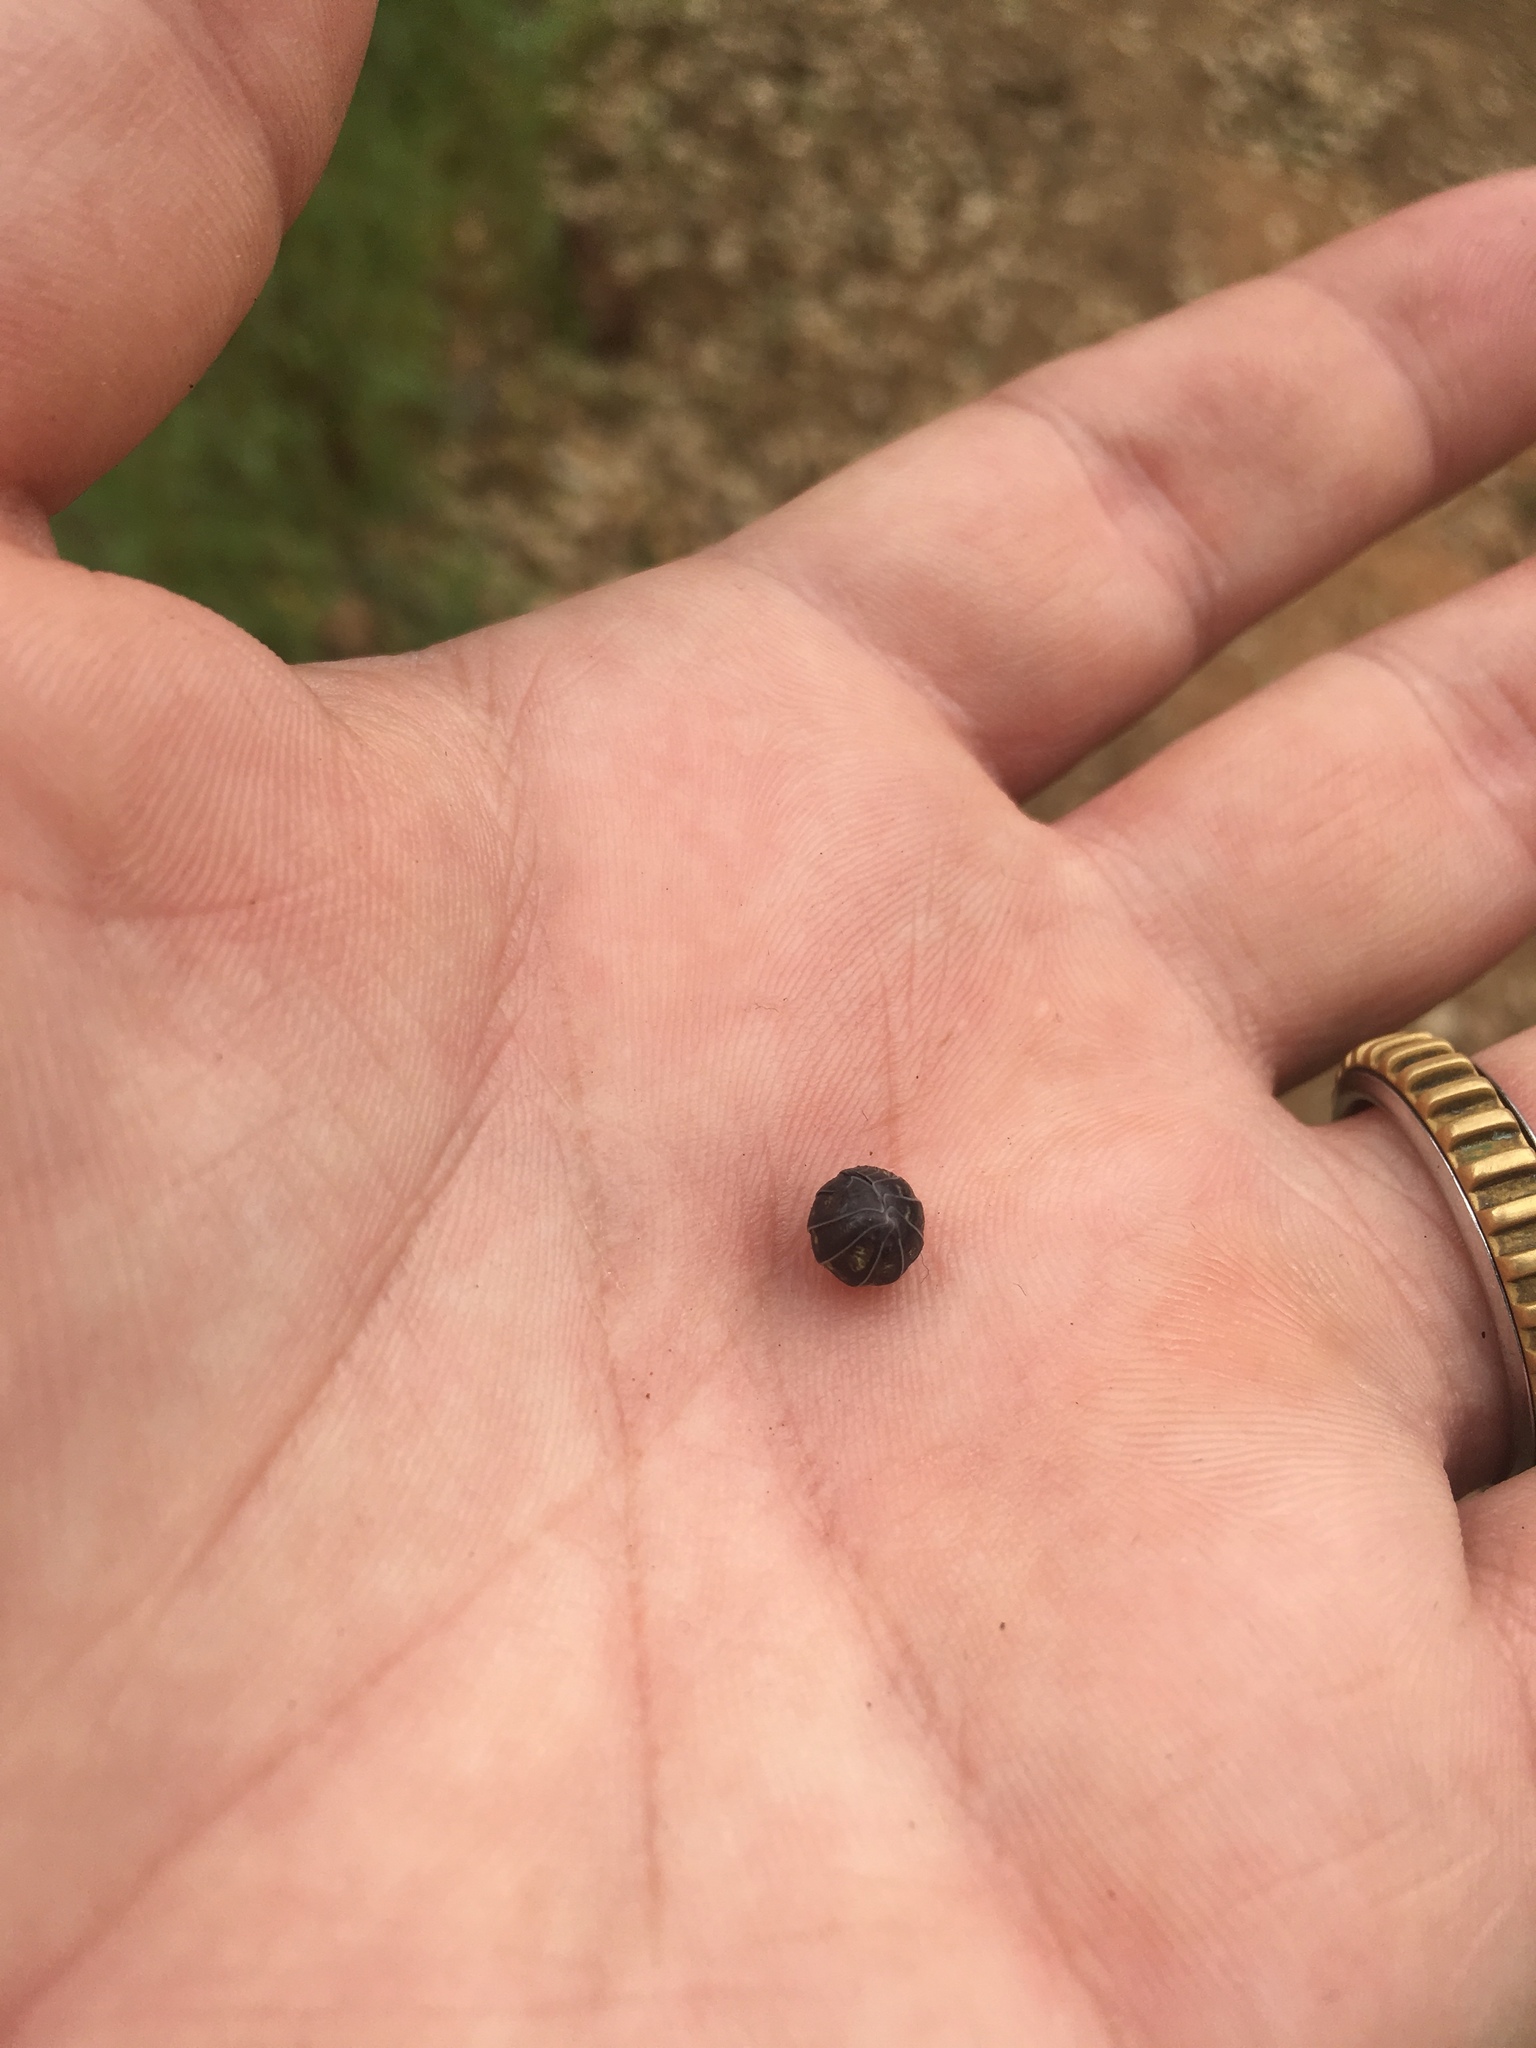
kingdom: Animalia
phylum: Arthropoda
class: Malacostraca
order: Isopoda
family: Armadillidiidae
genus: Armadillidium
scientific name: Armadillidium vulgare
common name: Common pill woodlouse
